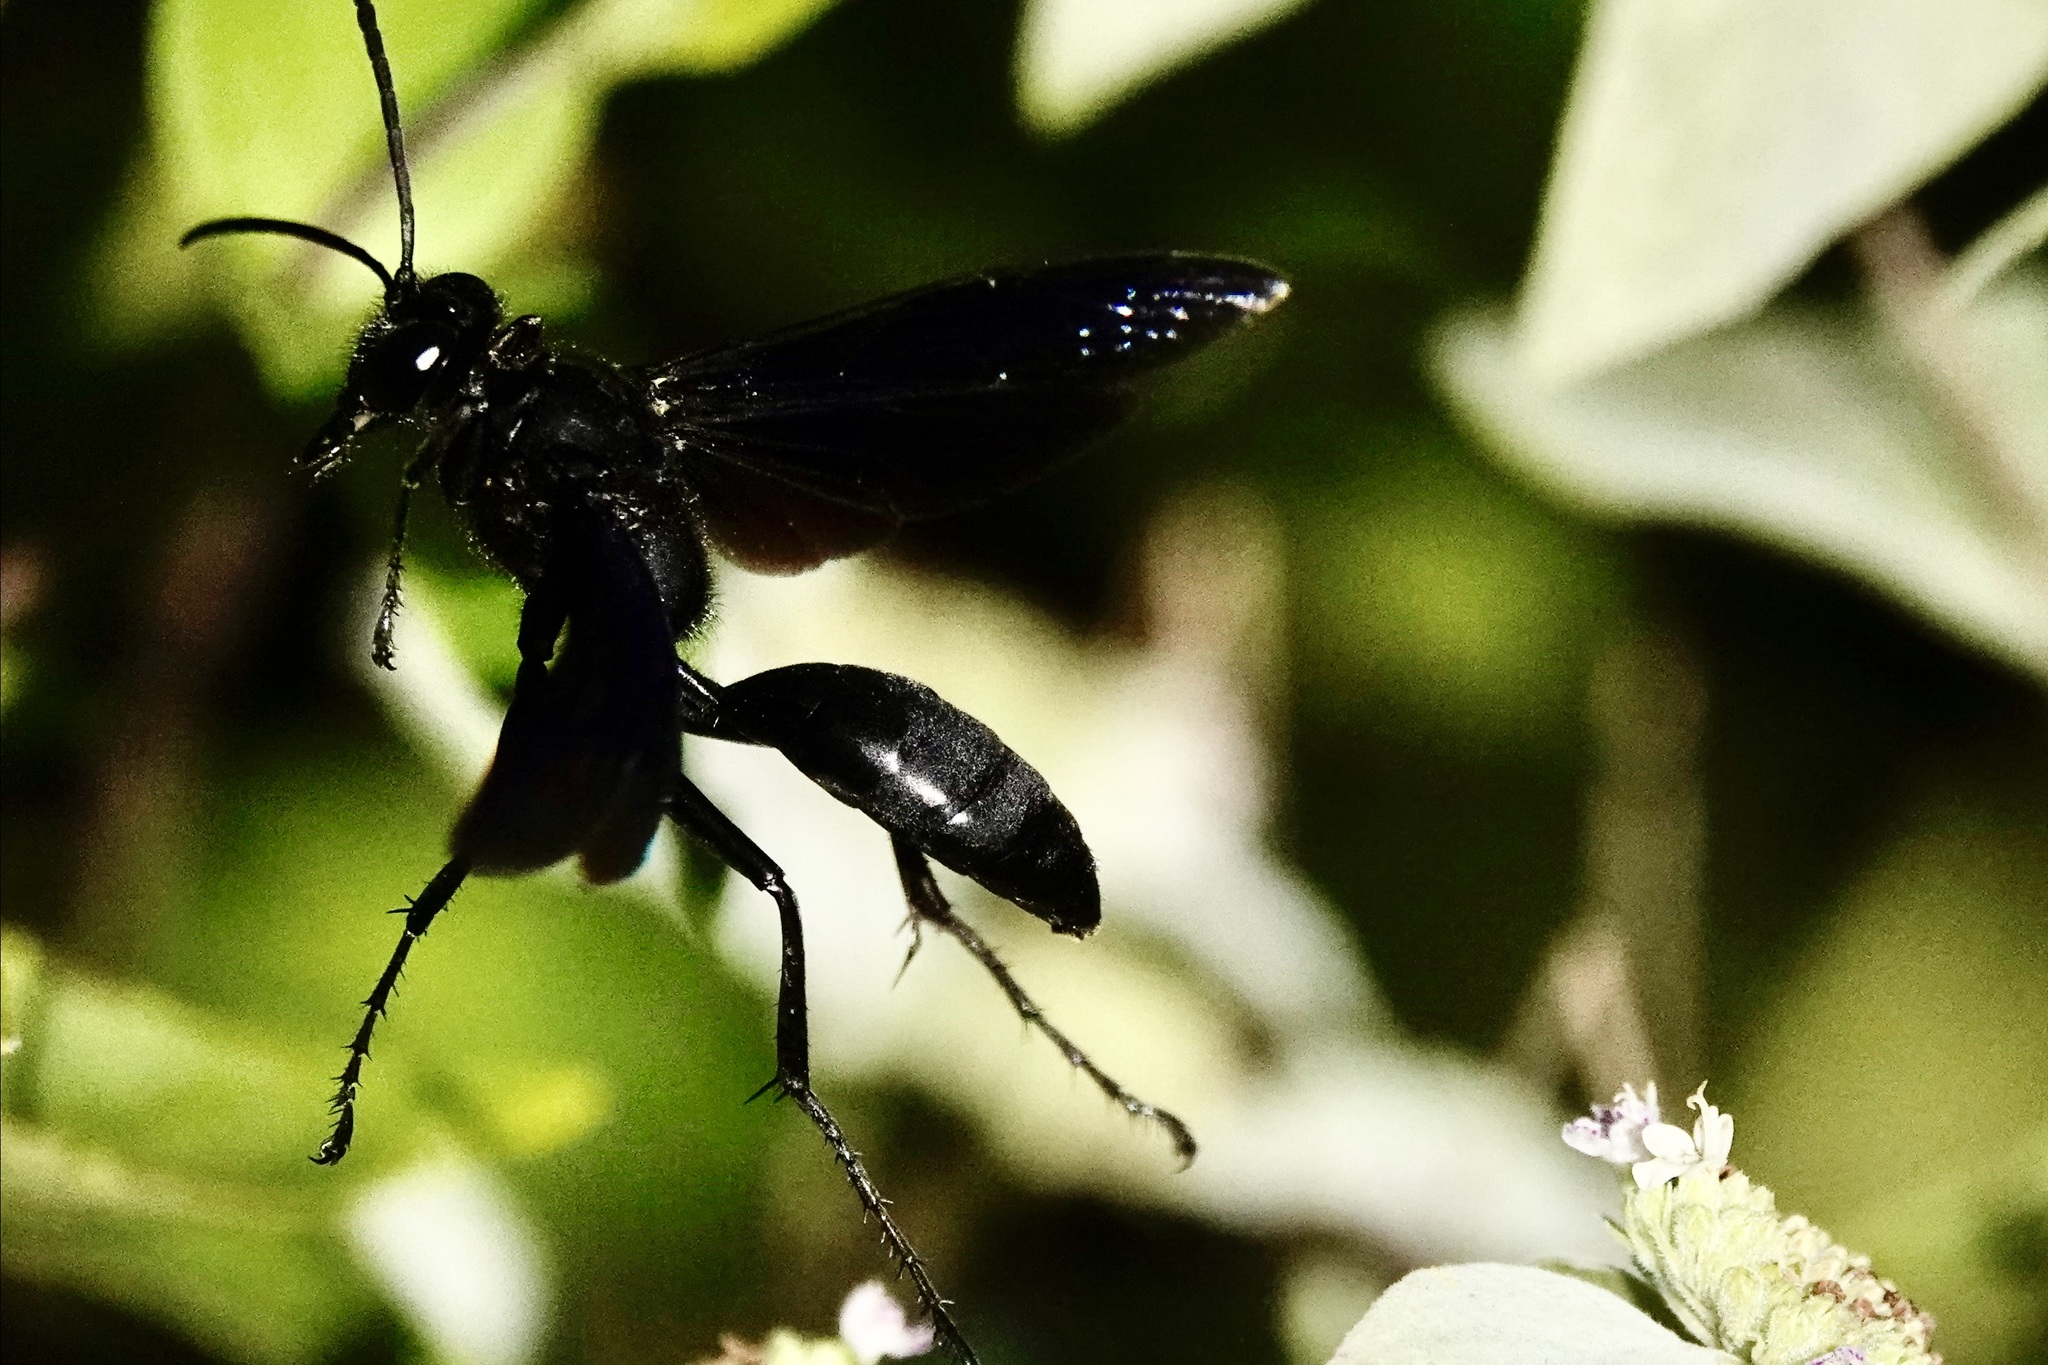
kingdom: Animalia
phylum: Arthropoda
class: Insecta
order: Hymenoptera
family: Sphecidae
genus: Sphex
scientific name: Sphex pensylvanicus
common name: Great black digger wasp
